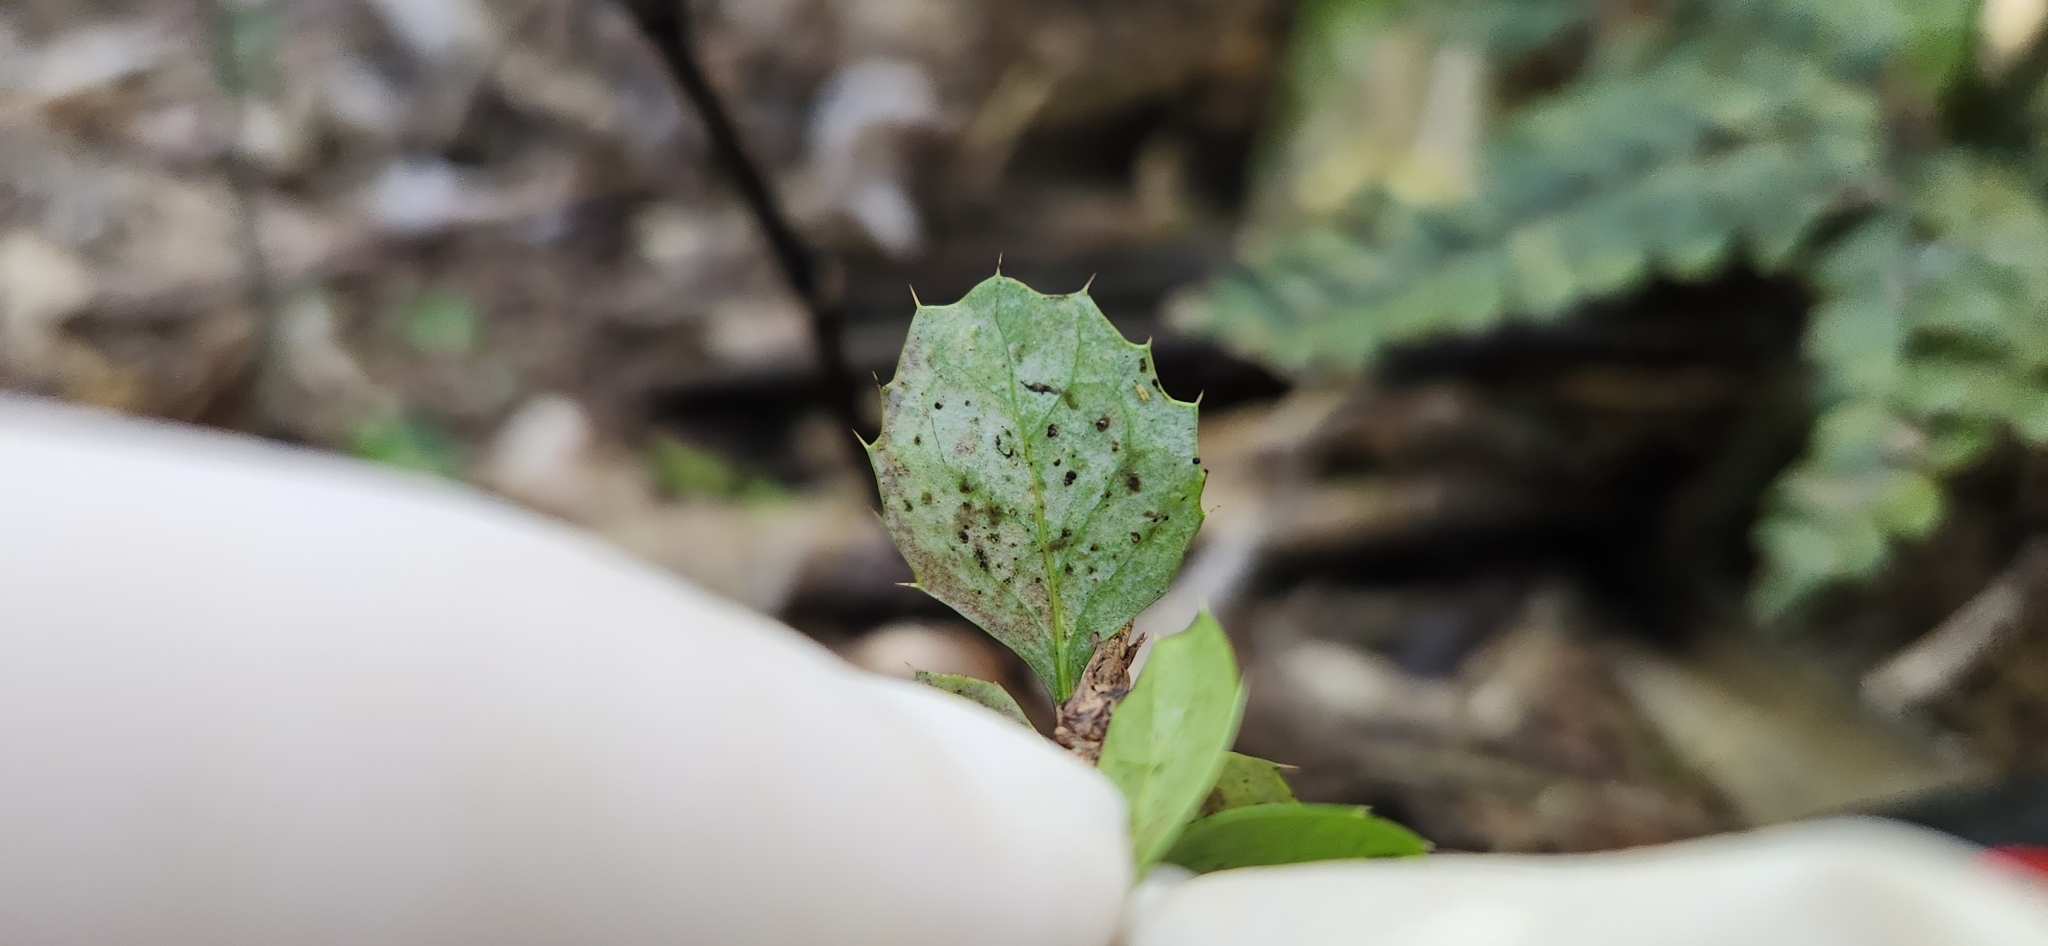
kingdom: Plantae
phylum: Tracheophyta
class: Magnoliopsida
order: Ranunculales
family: Berberidaceae
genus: Berberis
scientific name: Berberis darwinii
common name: Darwin's barberry
